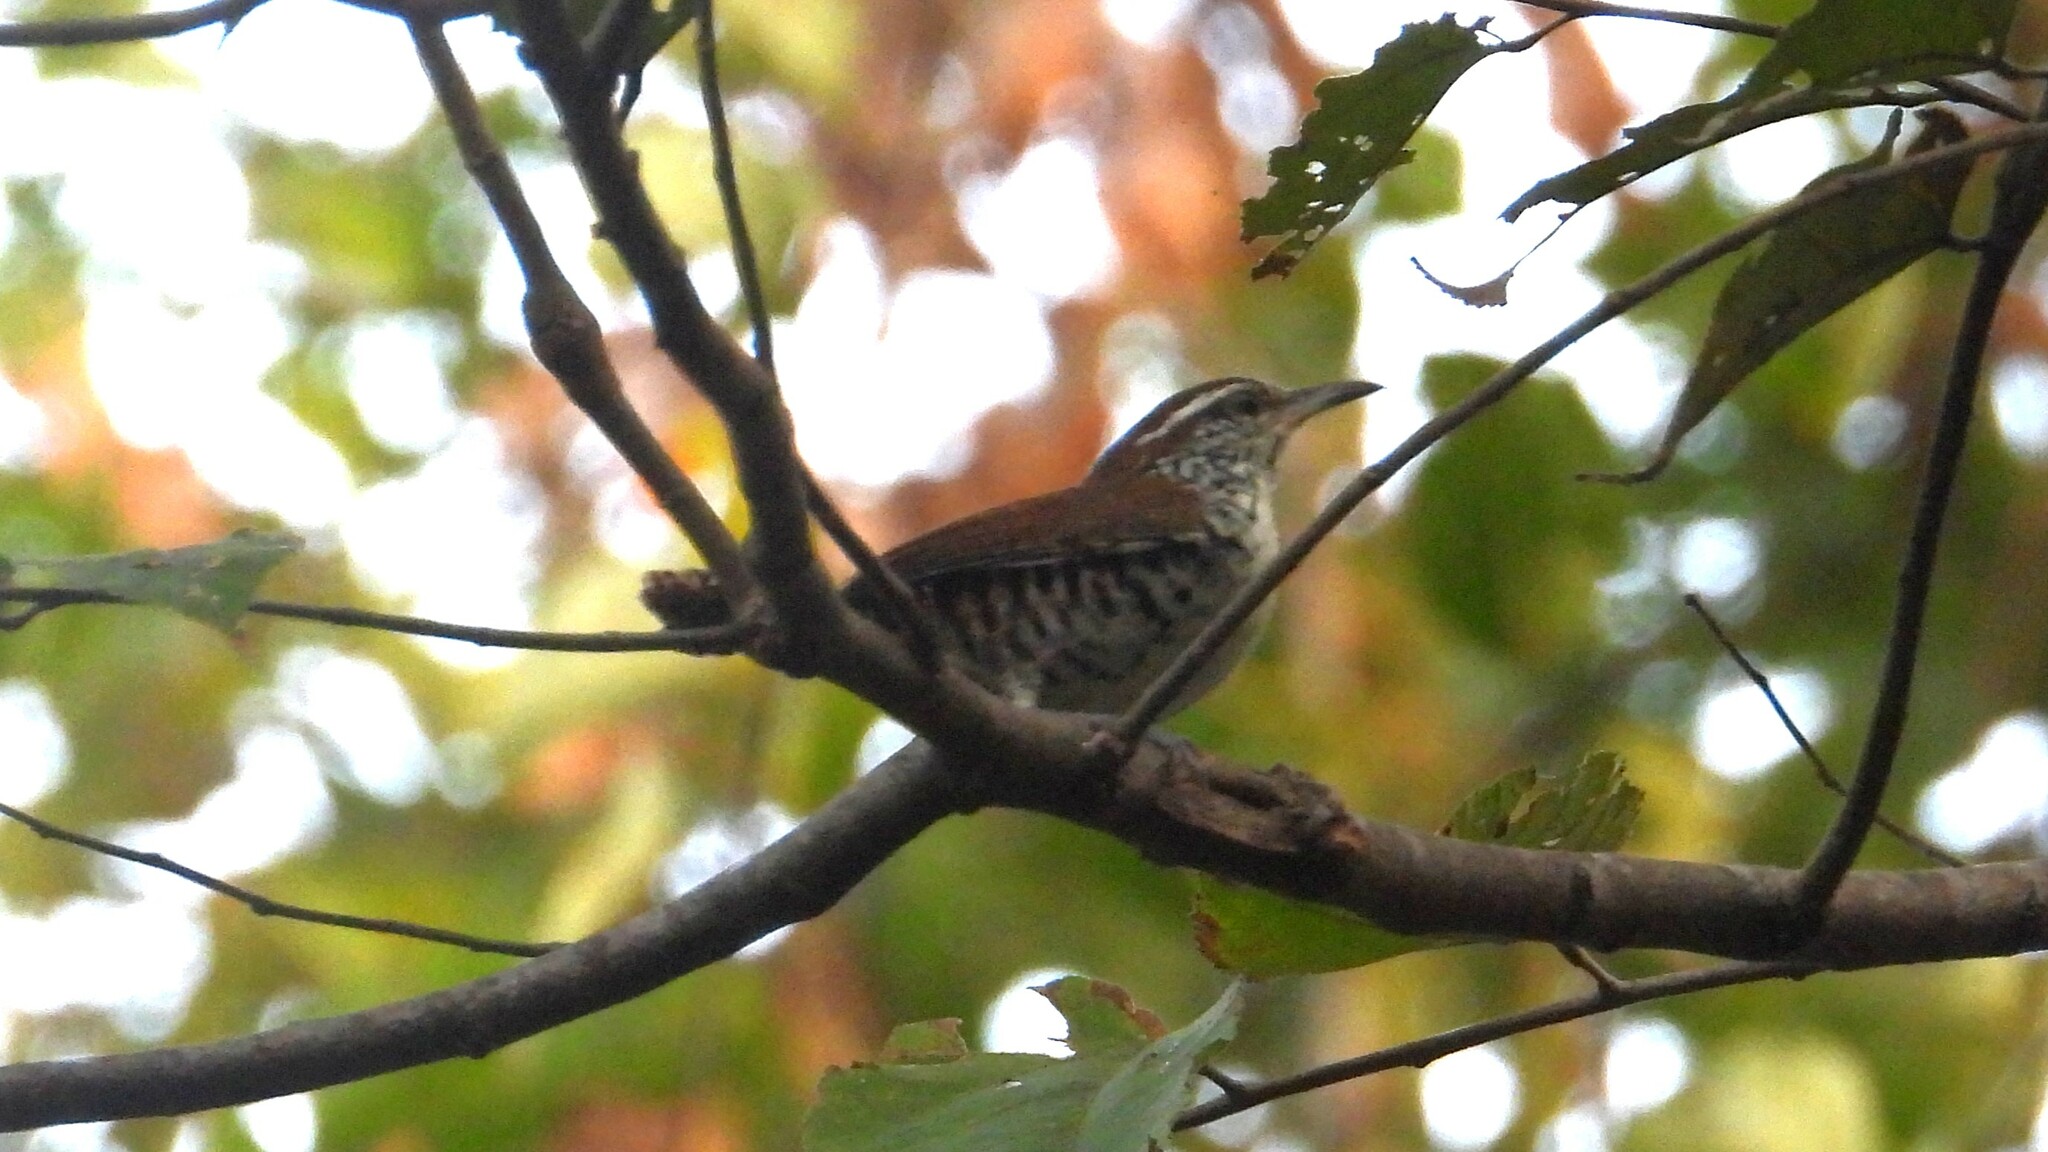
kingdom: Animalia
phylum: Chordata
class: Aves
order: Passeriformes
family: Troglodytidae
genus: Thryophilus
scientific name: Thryophilus pleurostictus
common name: Banded wren
